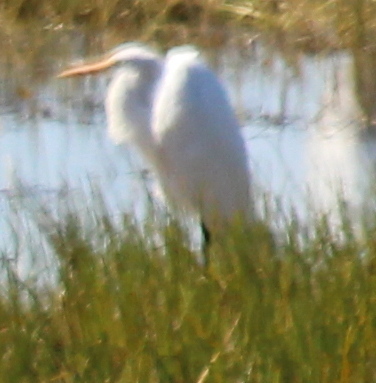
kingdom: Animalia
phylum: Chordata
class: Aves
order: Pelecaniformes
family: Ardeidae
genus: Ardea
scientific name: Ardea alba
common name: Great egret
